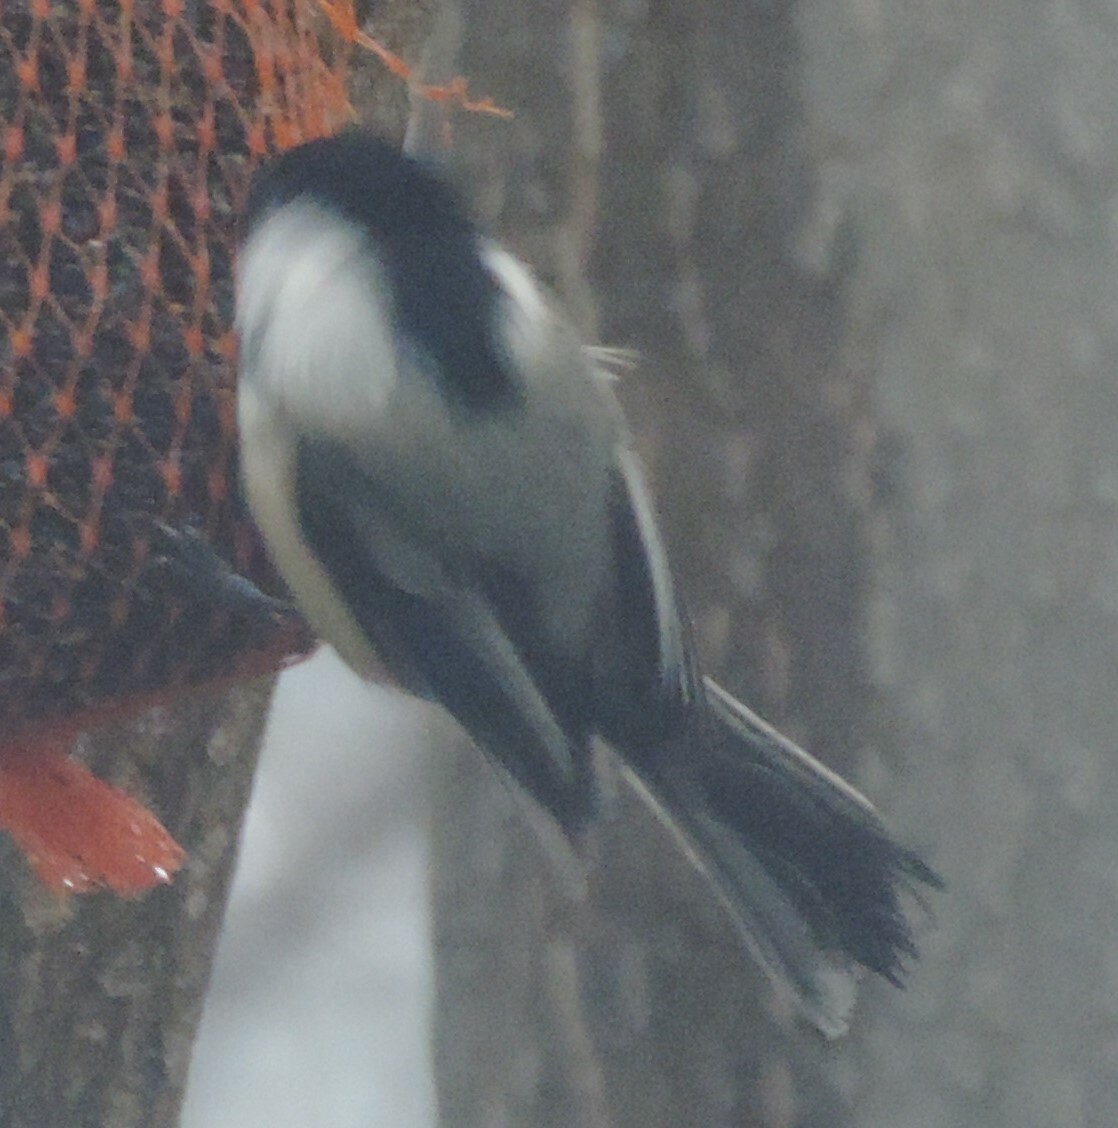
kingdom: Animalia
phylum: Chordata
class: Aves
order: Passeriformes
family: Paridae
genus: Poecile
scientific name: Poecile atricapillus
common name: Black-capped chickadee
